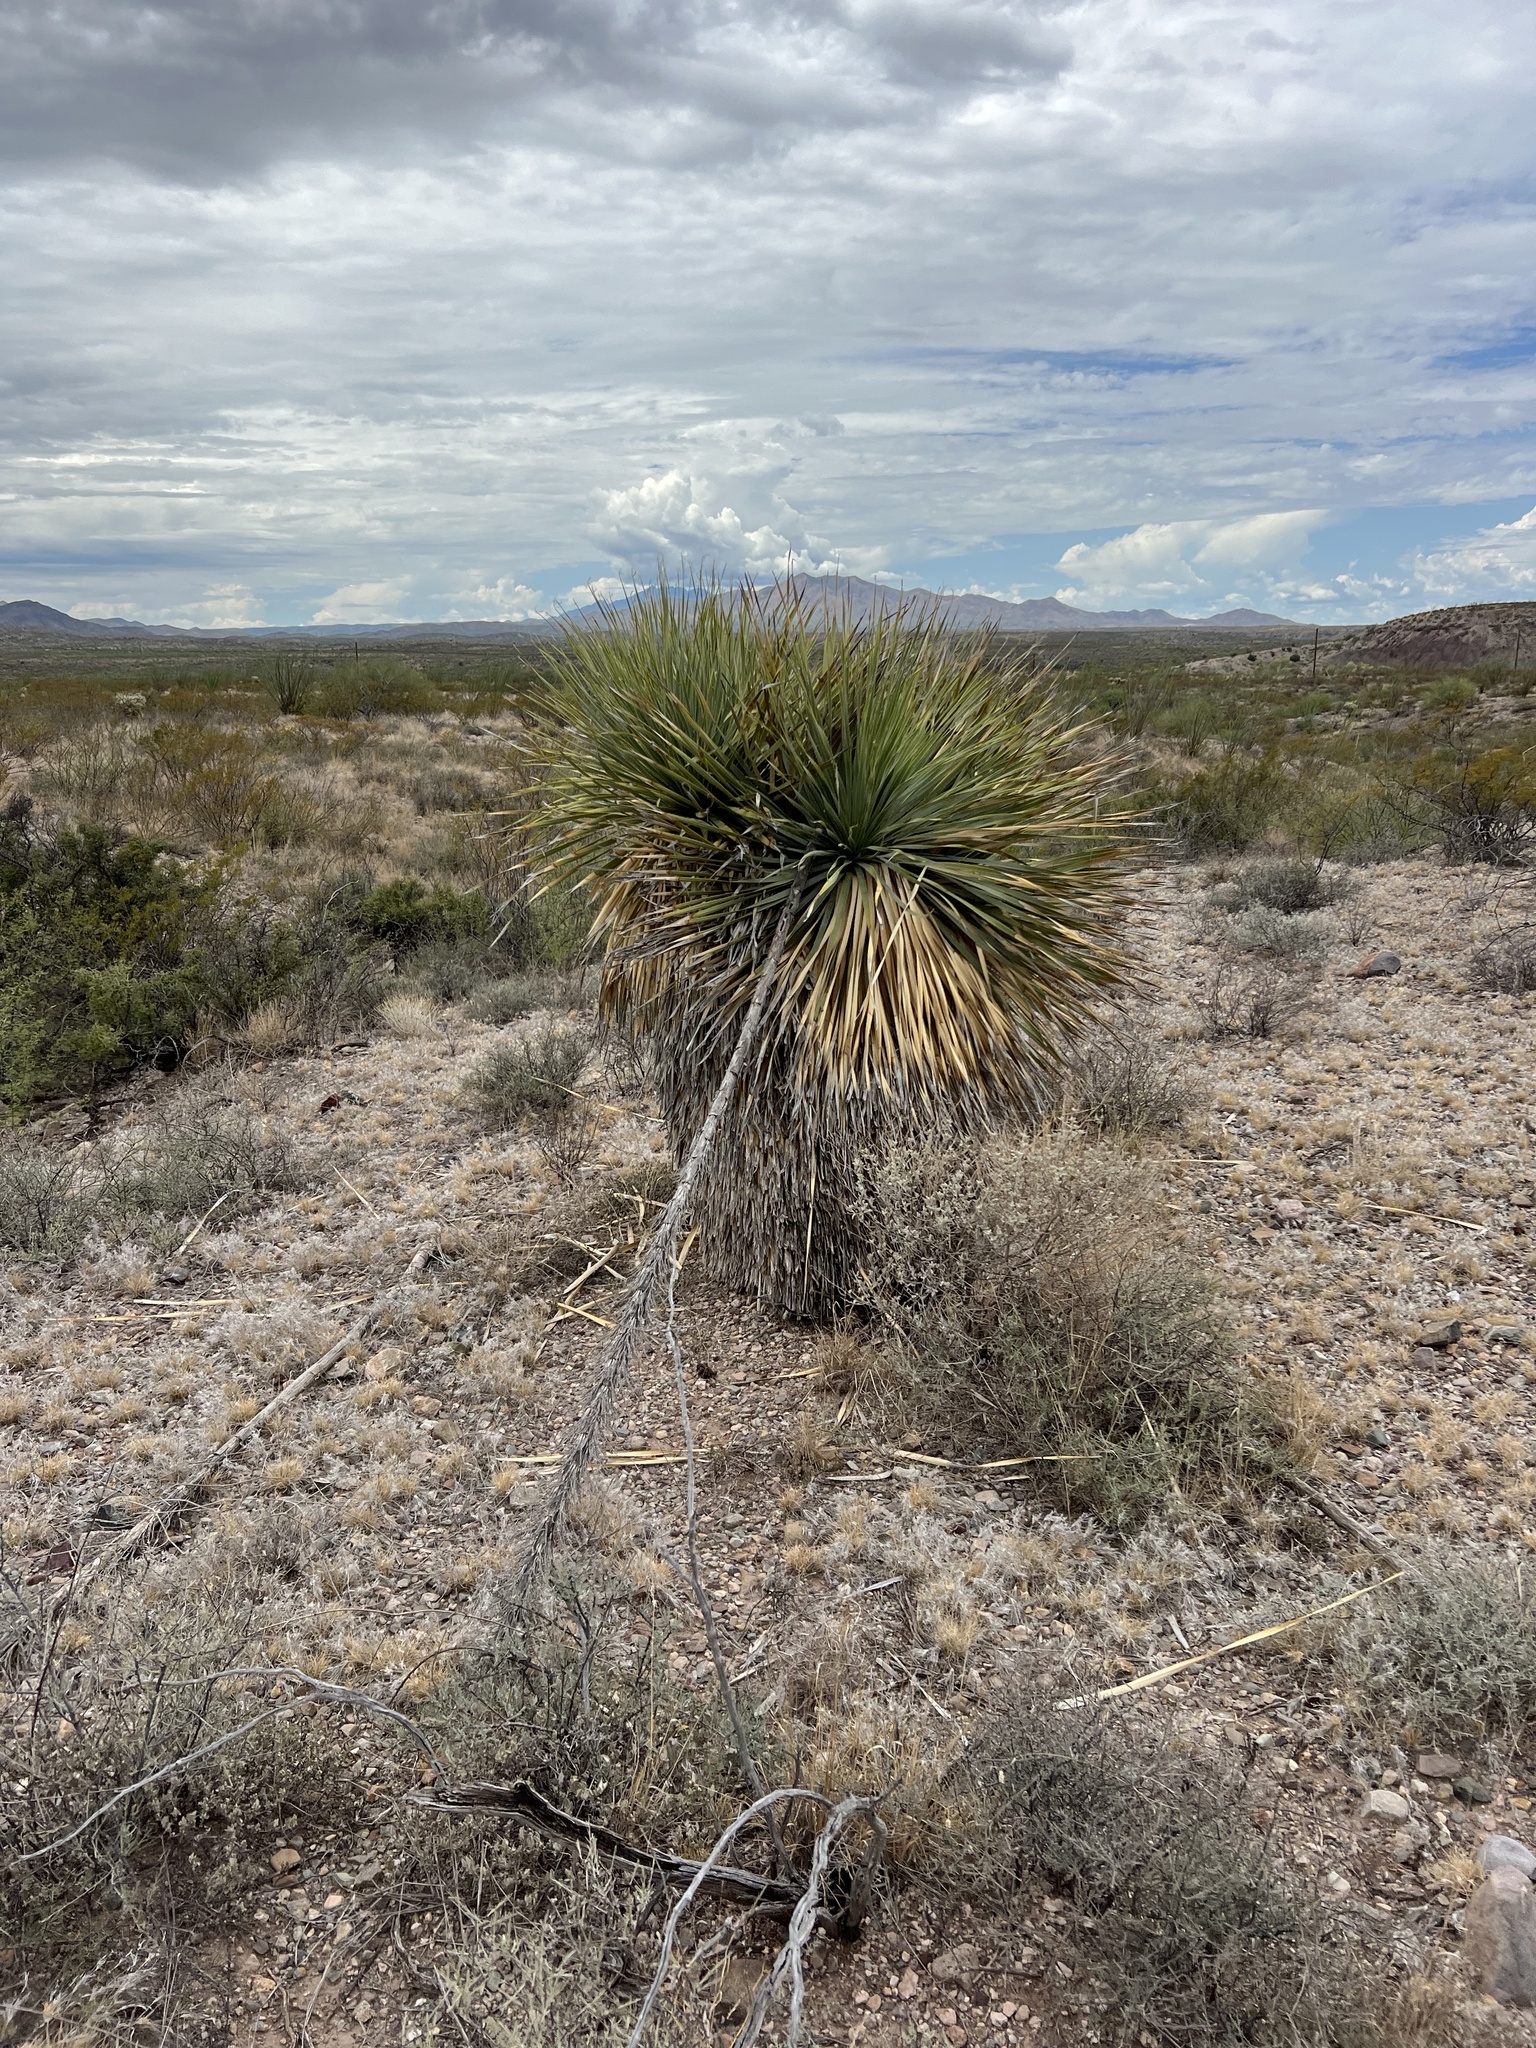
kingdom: Plantae
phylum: Tracheophyta
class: Liliopsida
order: Asparagales
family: Asparagaceae
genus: Dasylirion
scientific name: Dasylirion wheeleri
